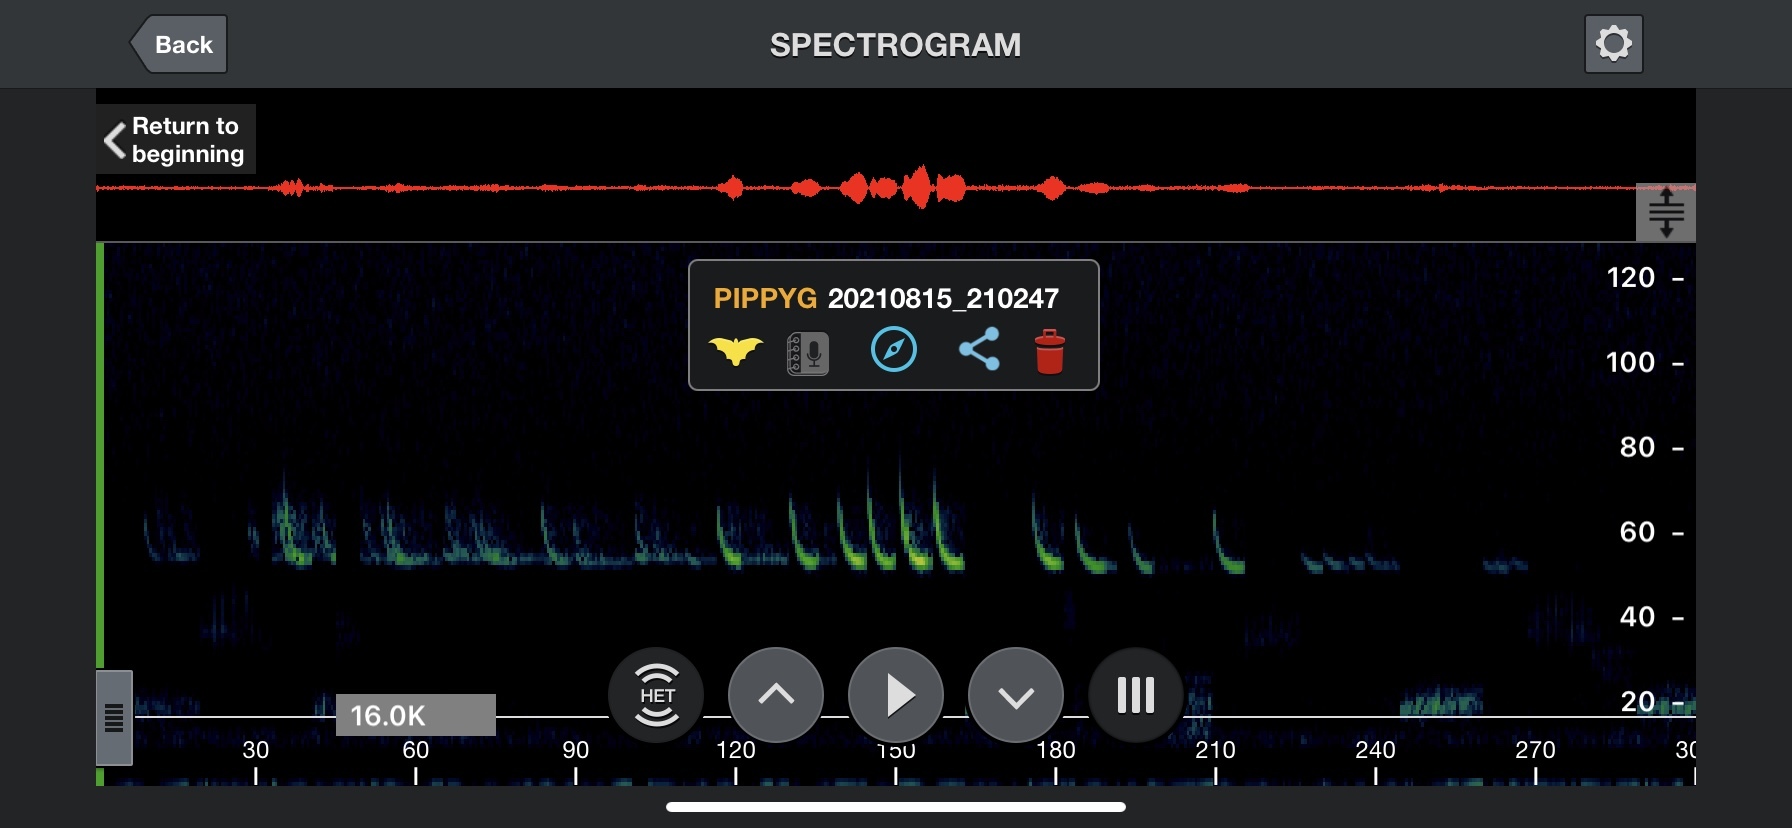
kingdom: Animalia
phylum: Chordata
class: Mammalia
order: Chiroptera
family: Vespertilionidae
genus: Pipistrellus
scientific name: Pipistrellus pygmaeus
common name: Soprano pipistrelle
